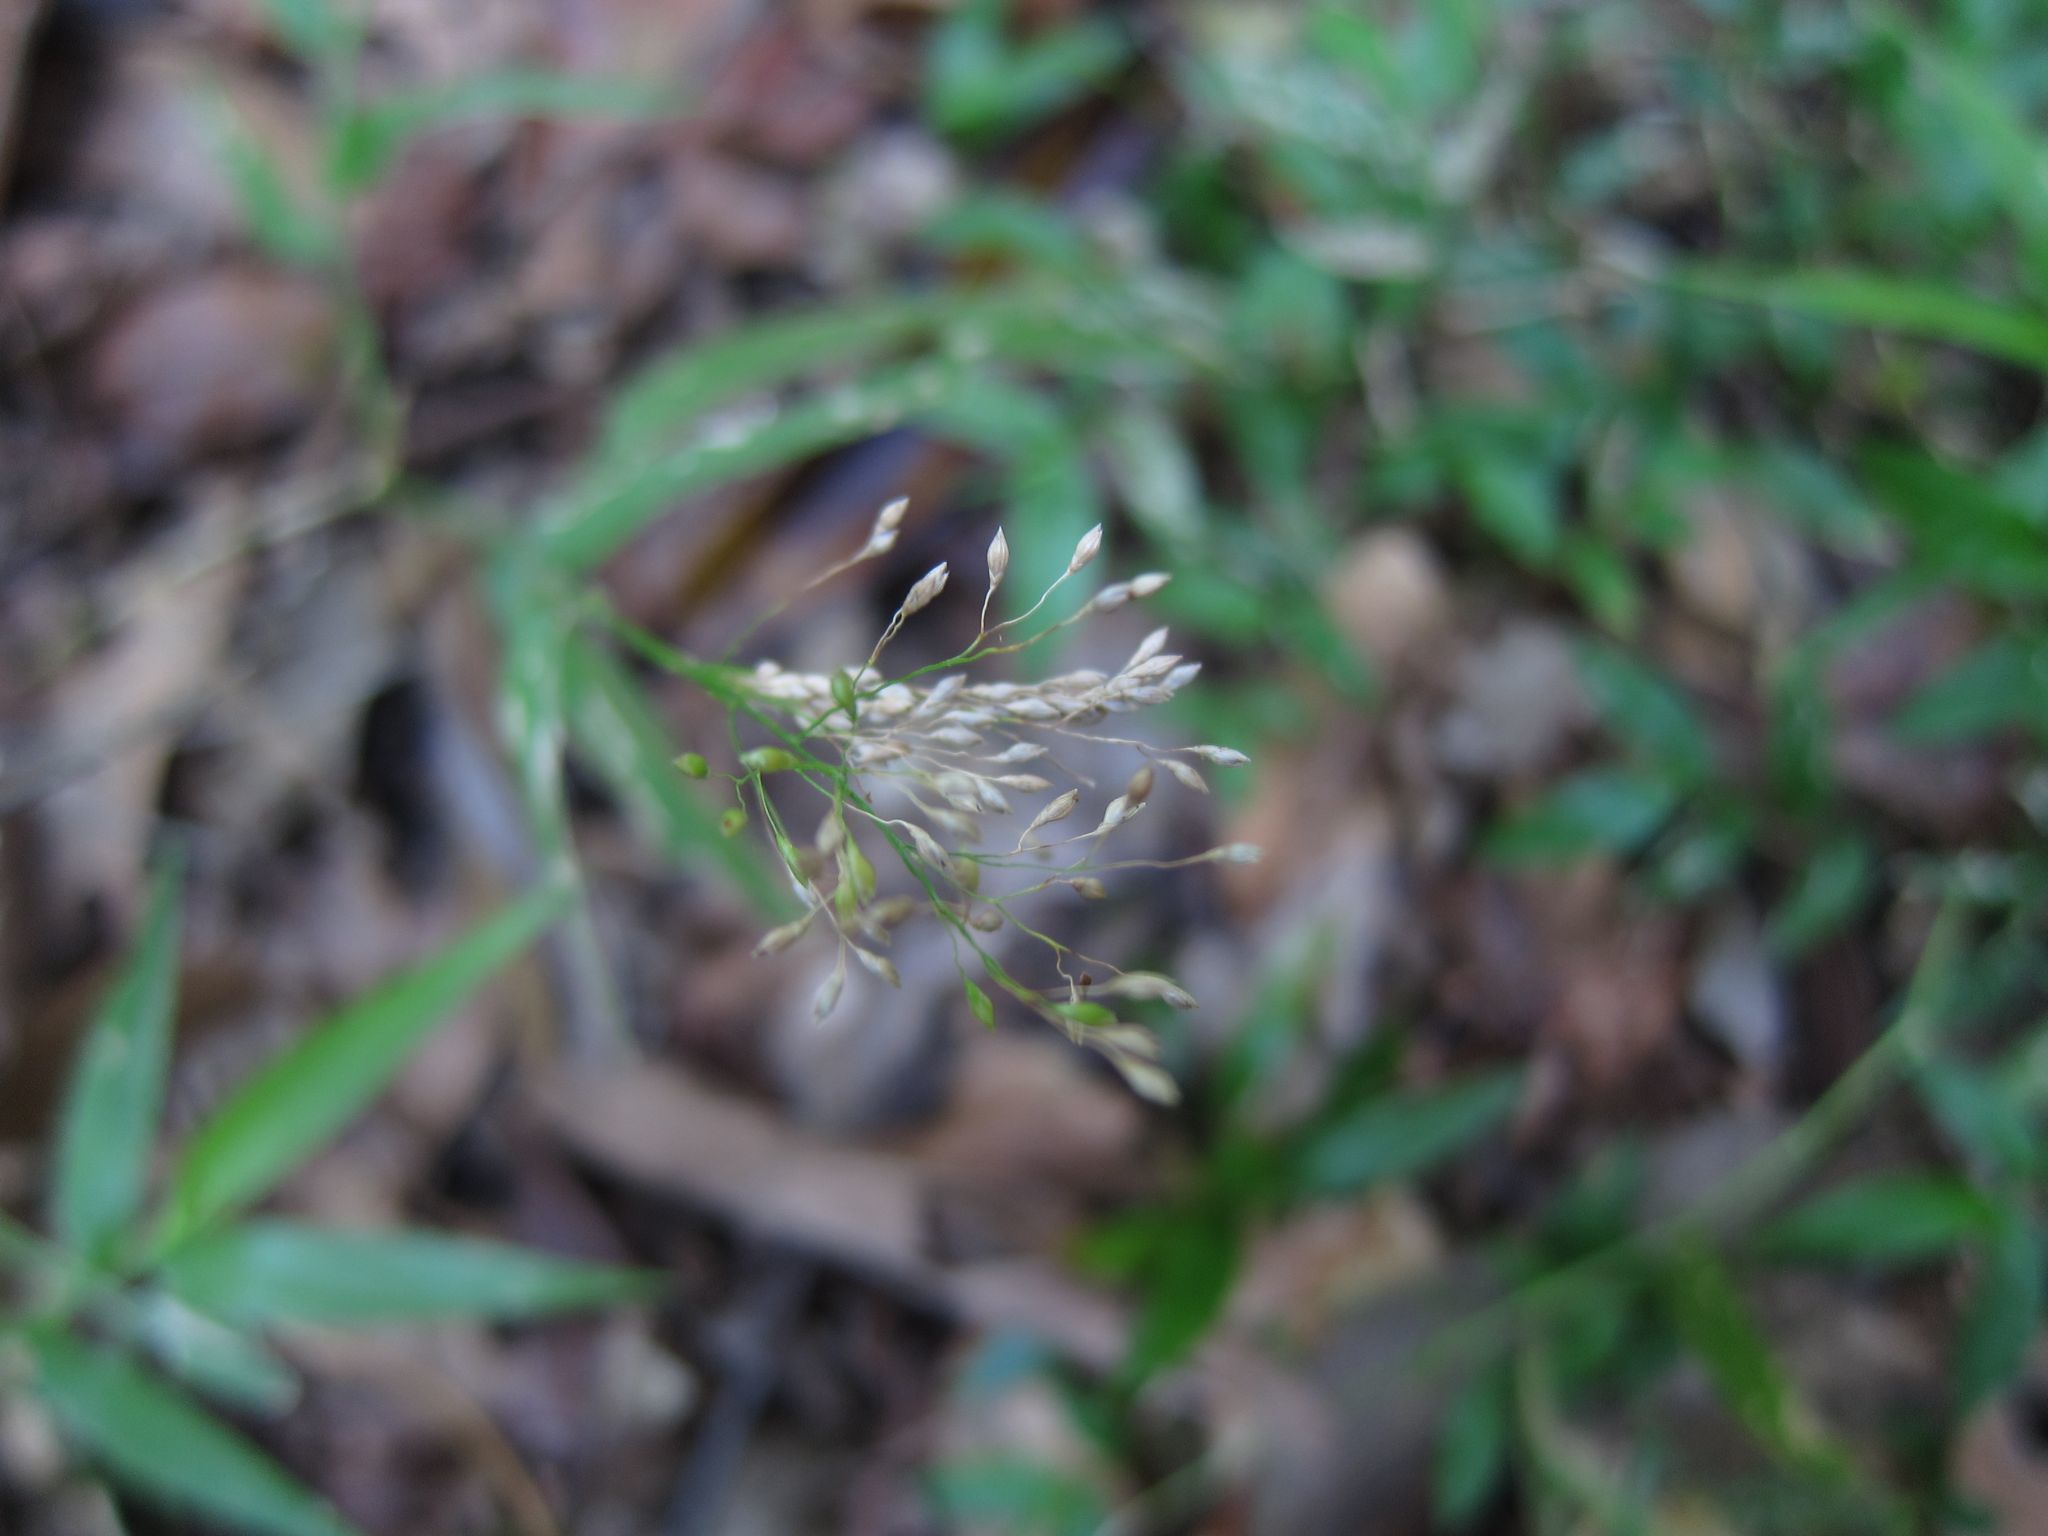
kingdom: Plantae
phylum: Tracheophyta
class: Liliopsida
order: Poales
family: Poaceae
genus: Panicum
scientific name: Panicum pleianthum
